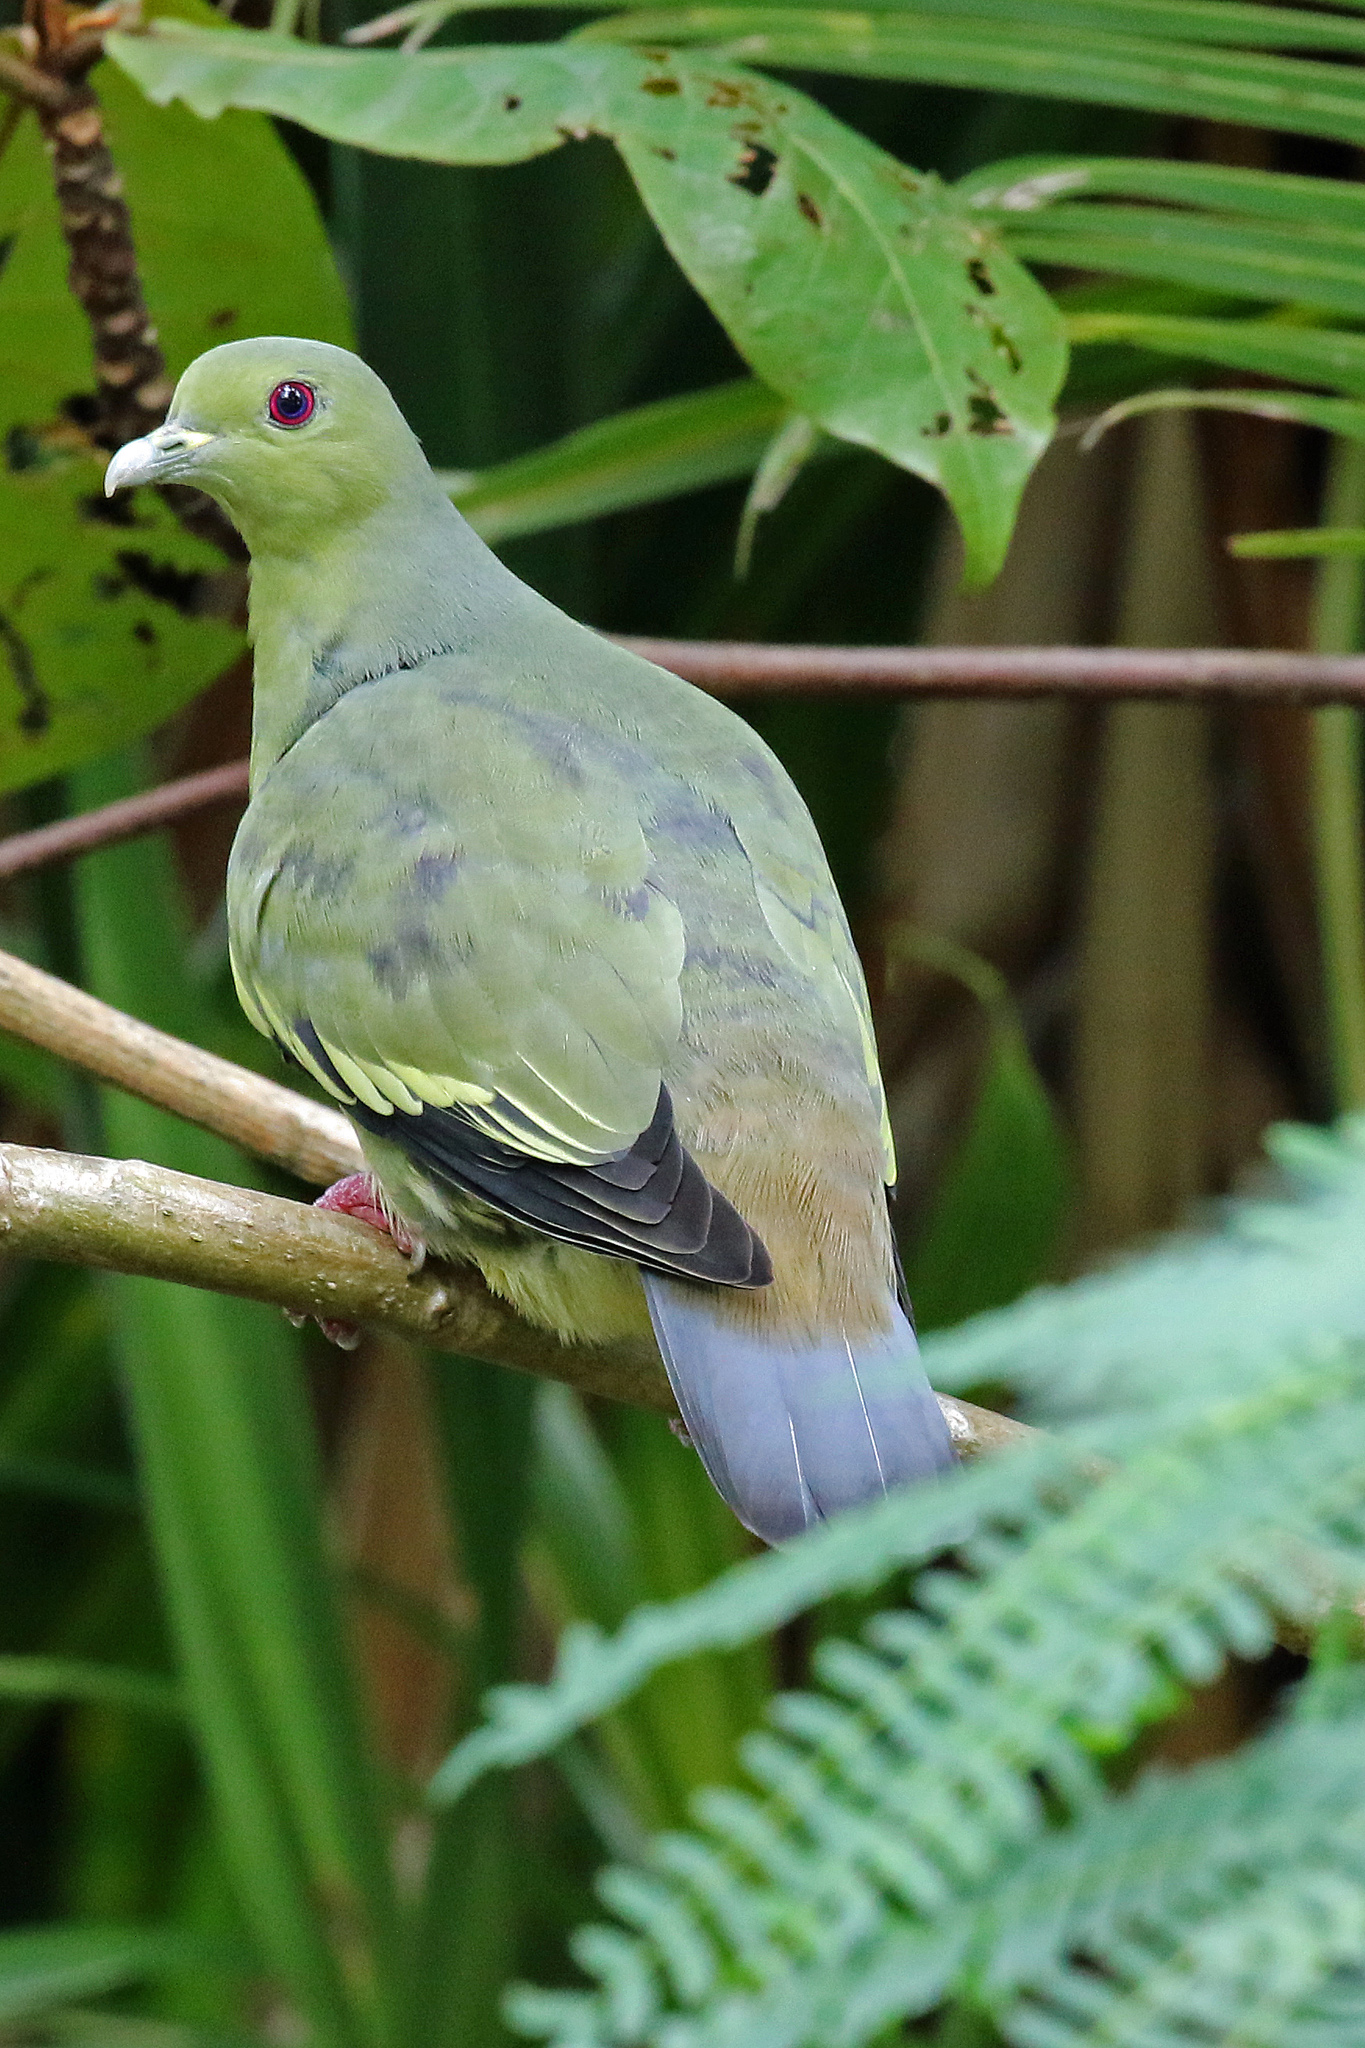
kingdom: Animalia
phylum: Chordata
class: Aves
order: Columbiformes
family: Columbidae
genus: Treron
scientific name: Treron vernans
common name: Pink-necked green pigeon
